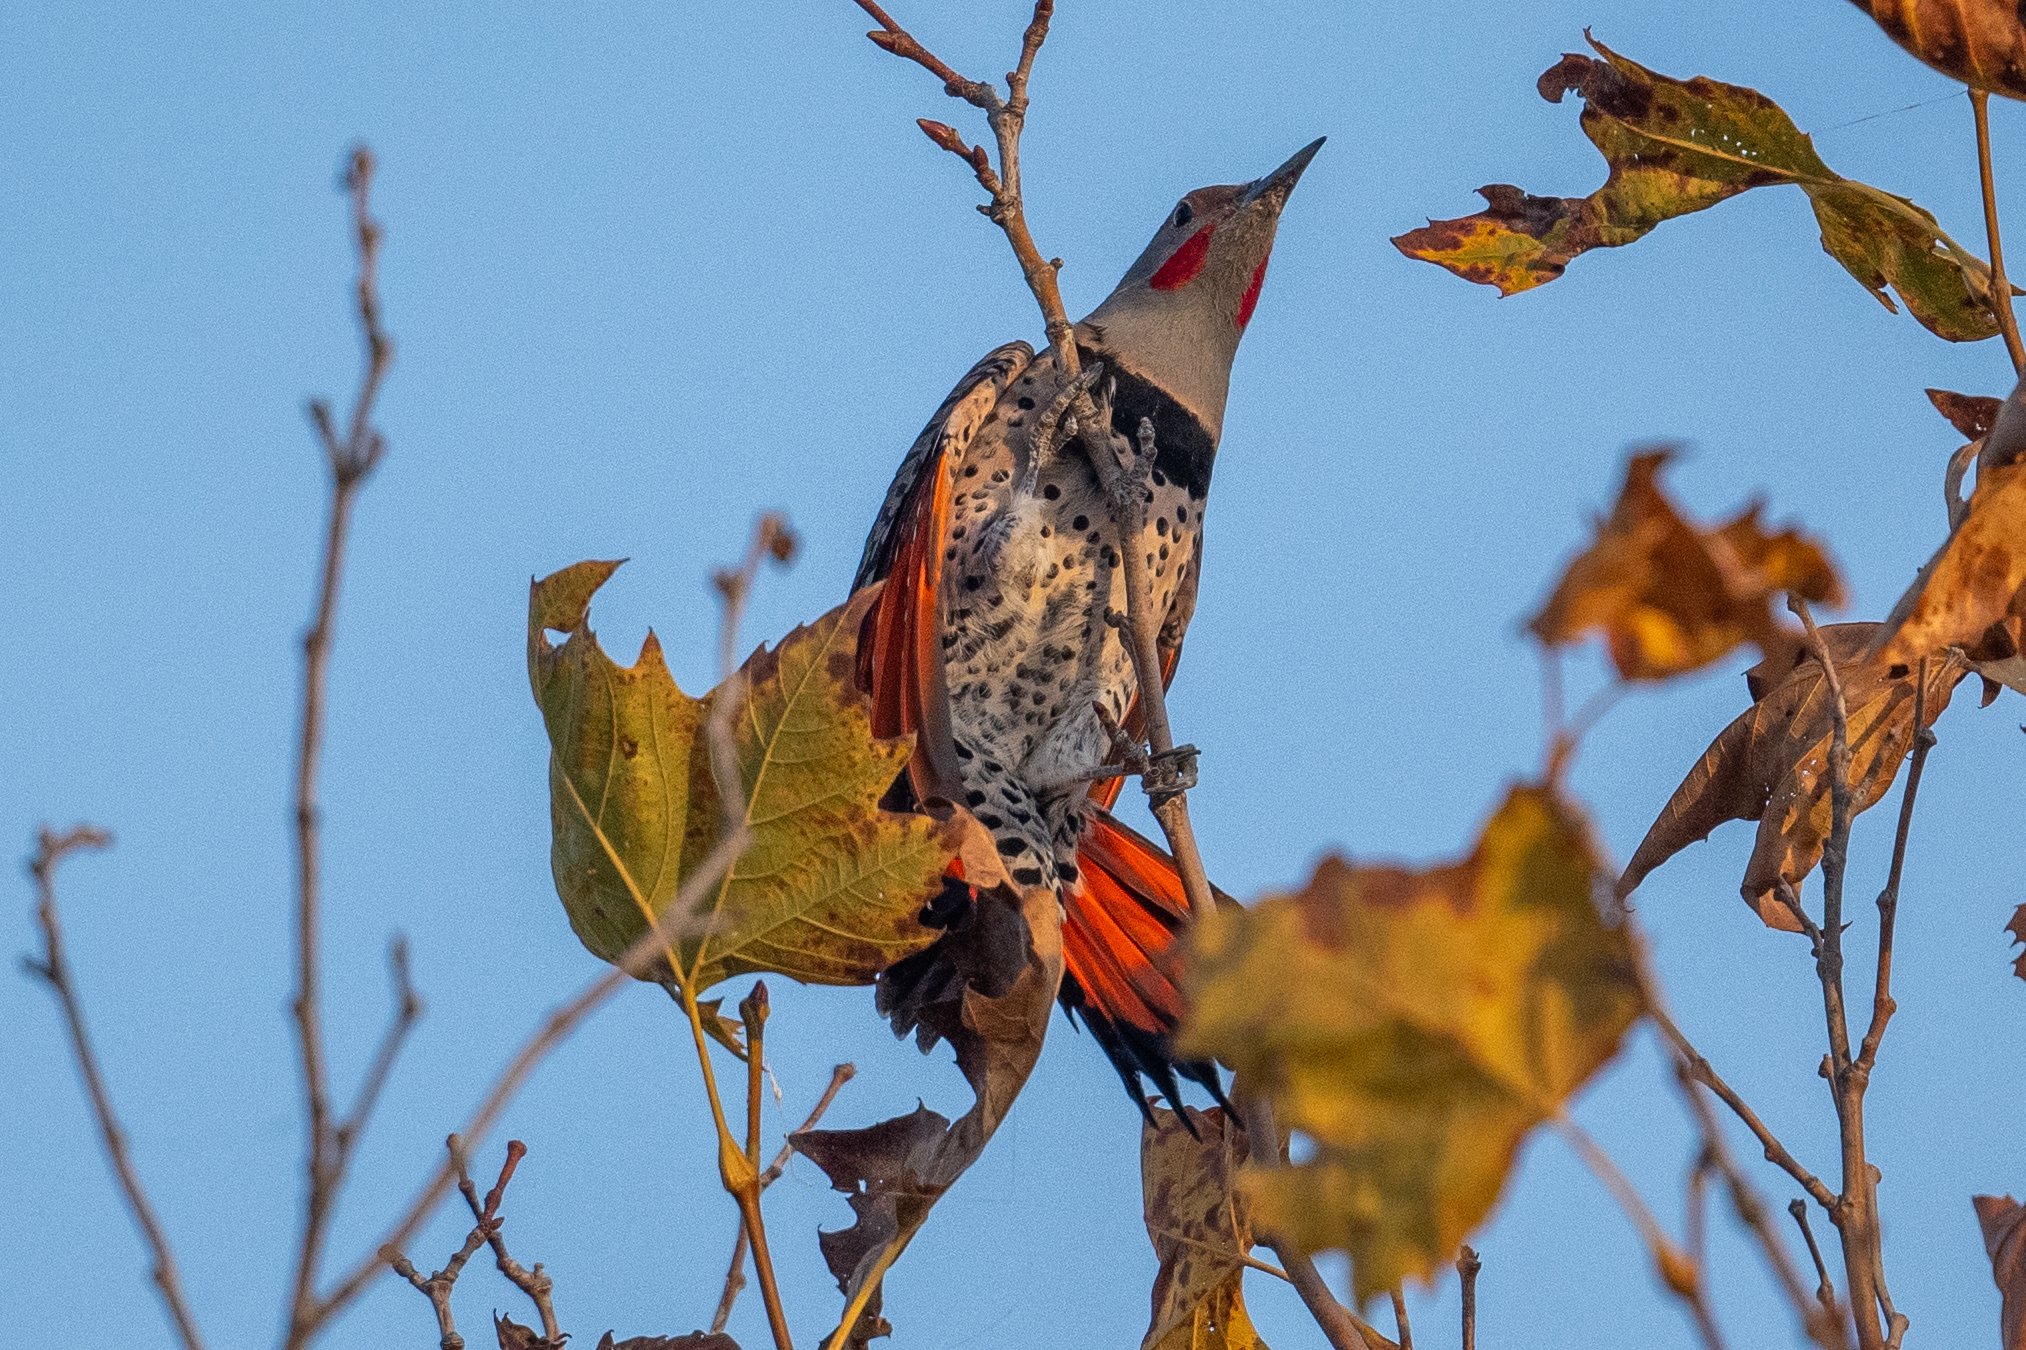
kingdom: Animalia
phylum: Chordata
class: Aves
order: Piciformes
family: Picidae
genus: Colaptes
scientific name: Colaptes auratus
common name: Northern flicker
